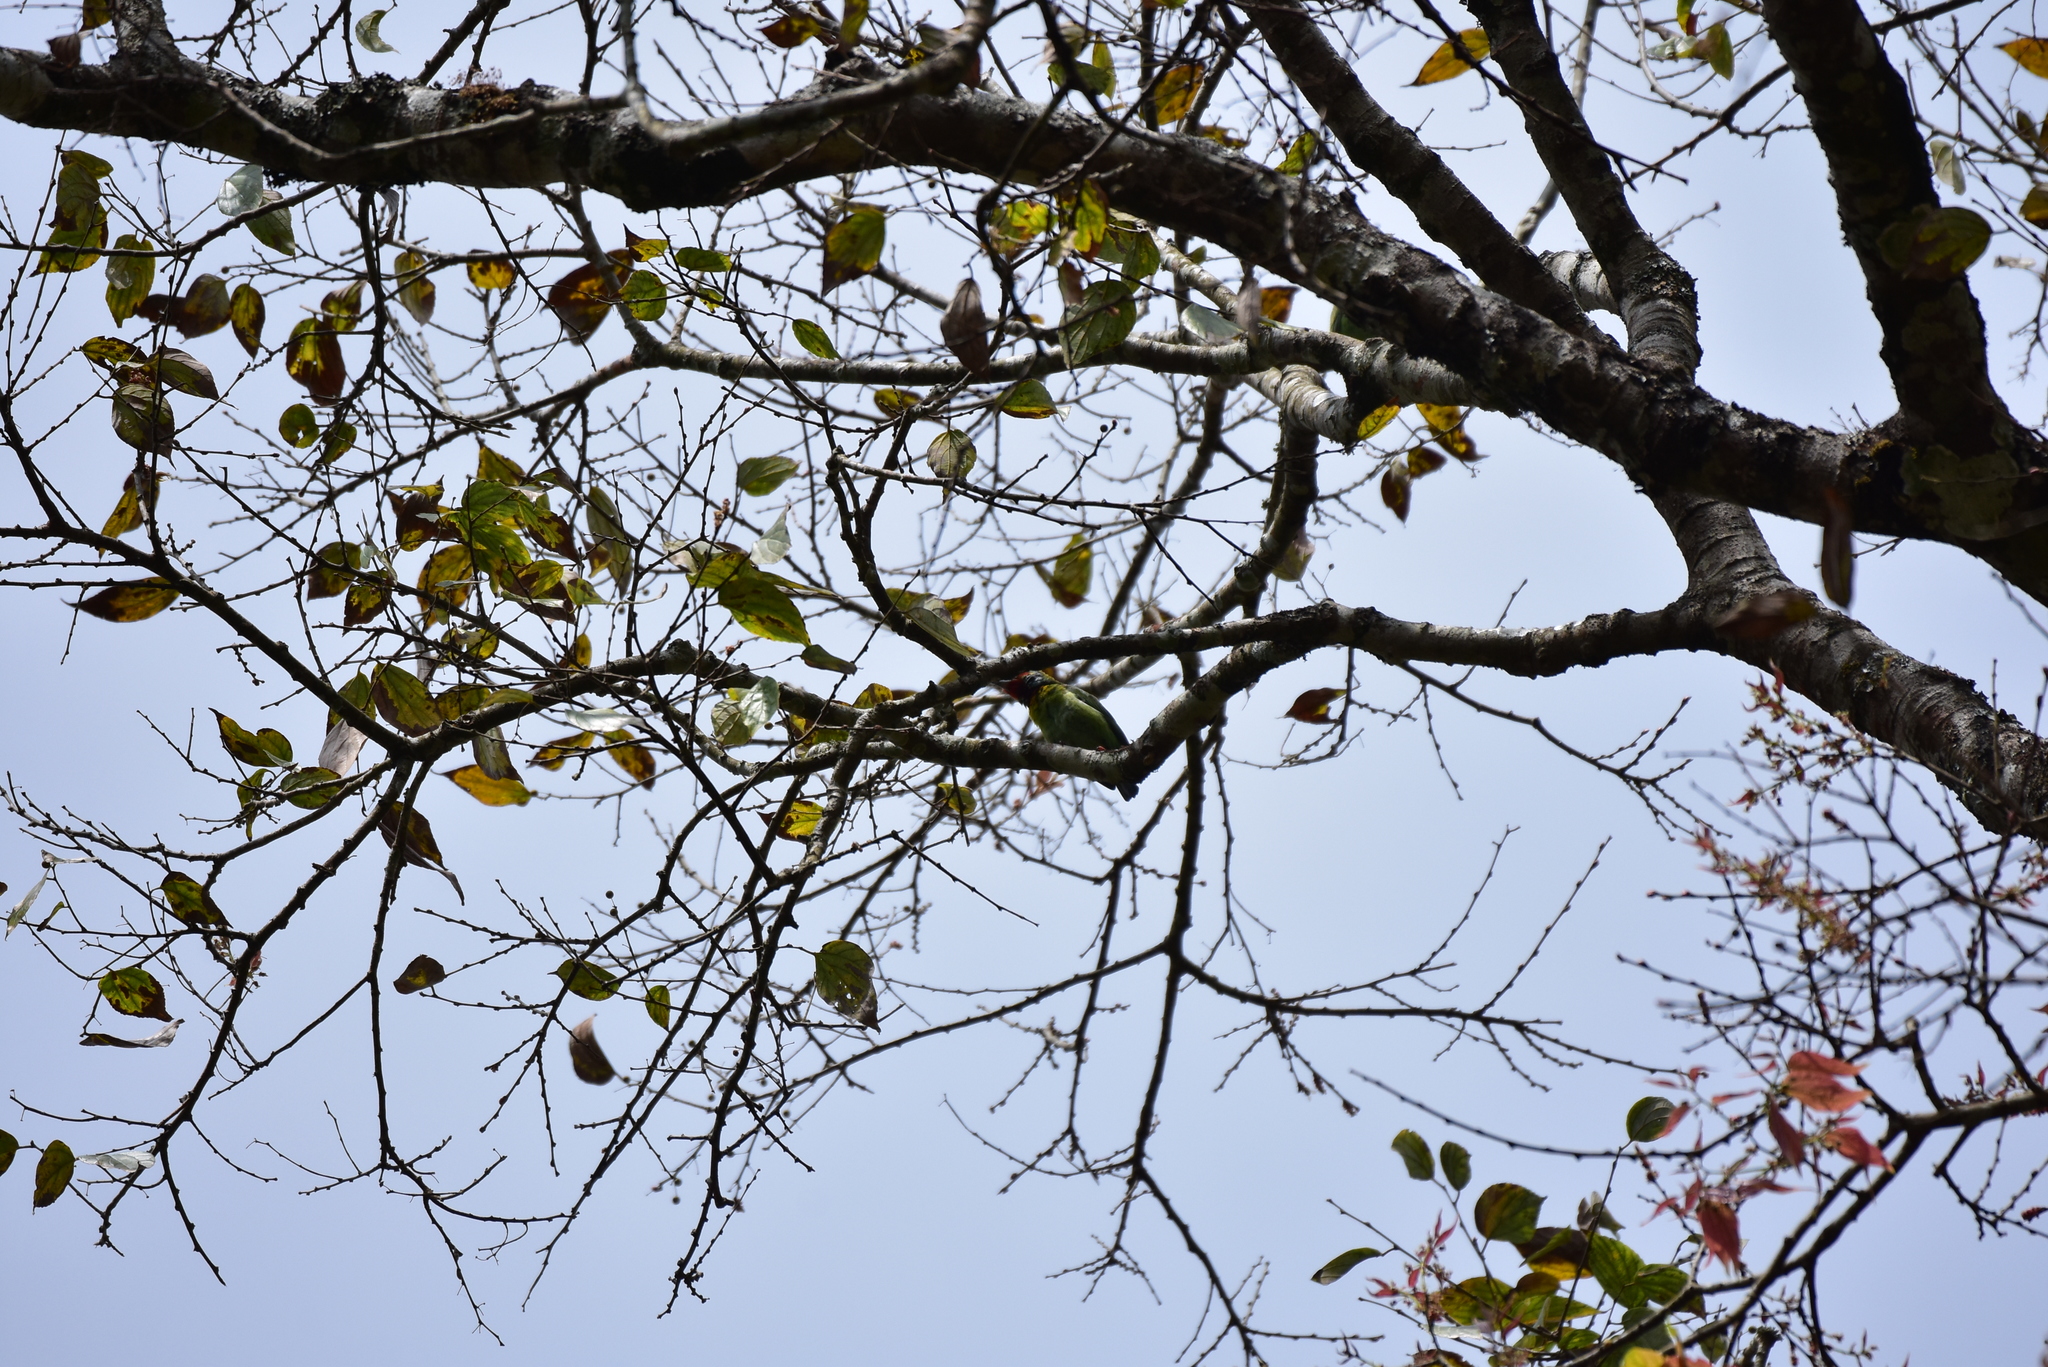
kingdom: Animalia
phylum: Chordata
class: Aves
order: Piciformes
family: Megalaimidae
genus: Psilopogon
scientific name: Psilopogon malabaricus
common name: Malabar barbet
